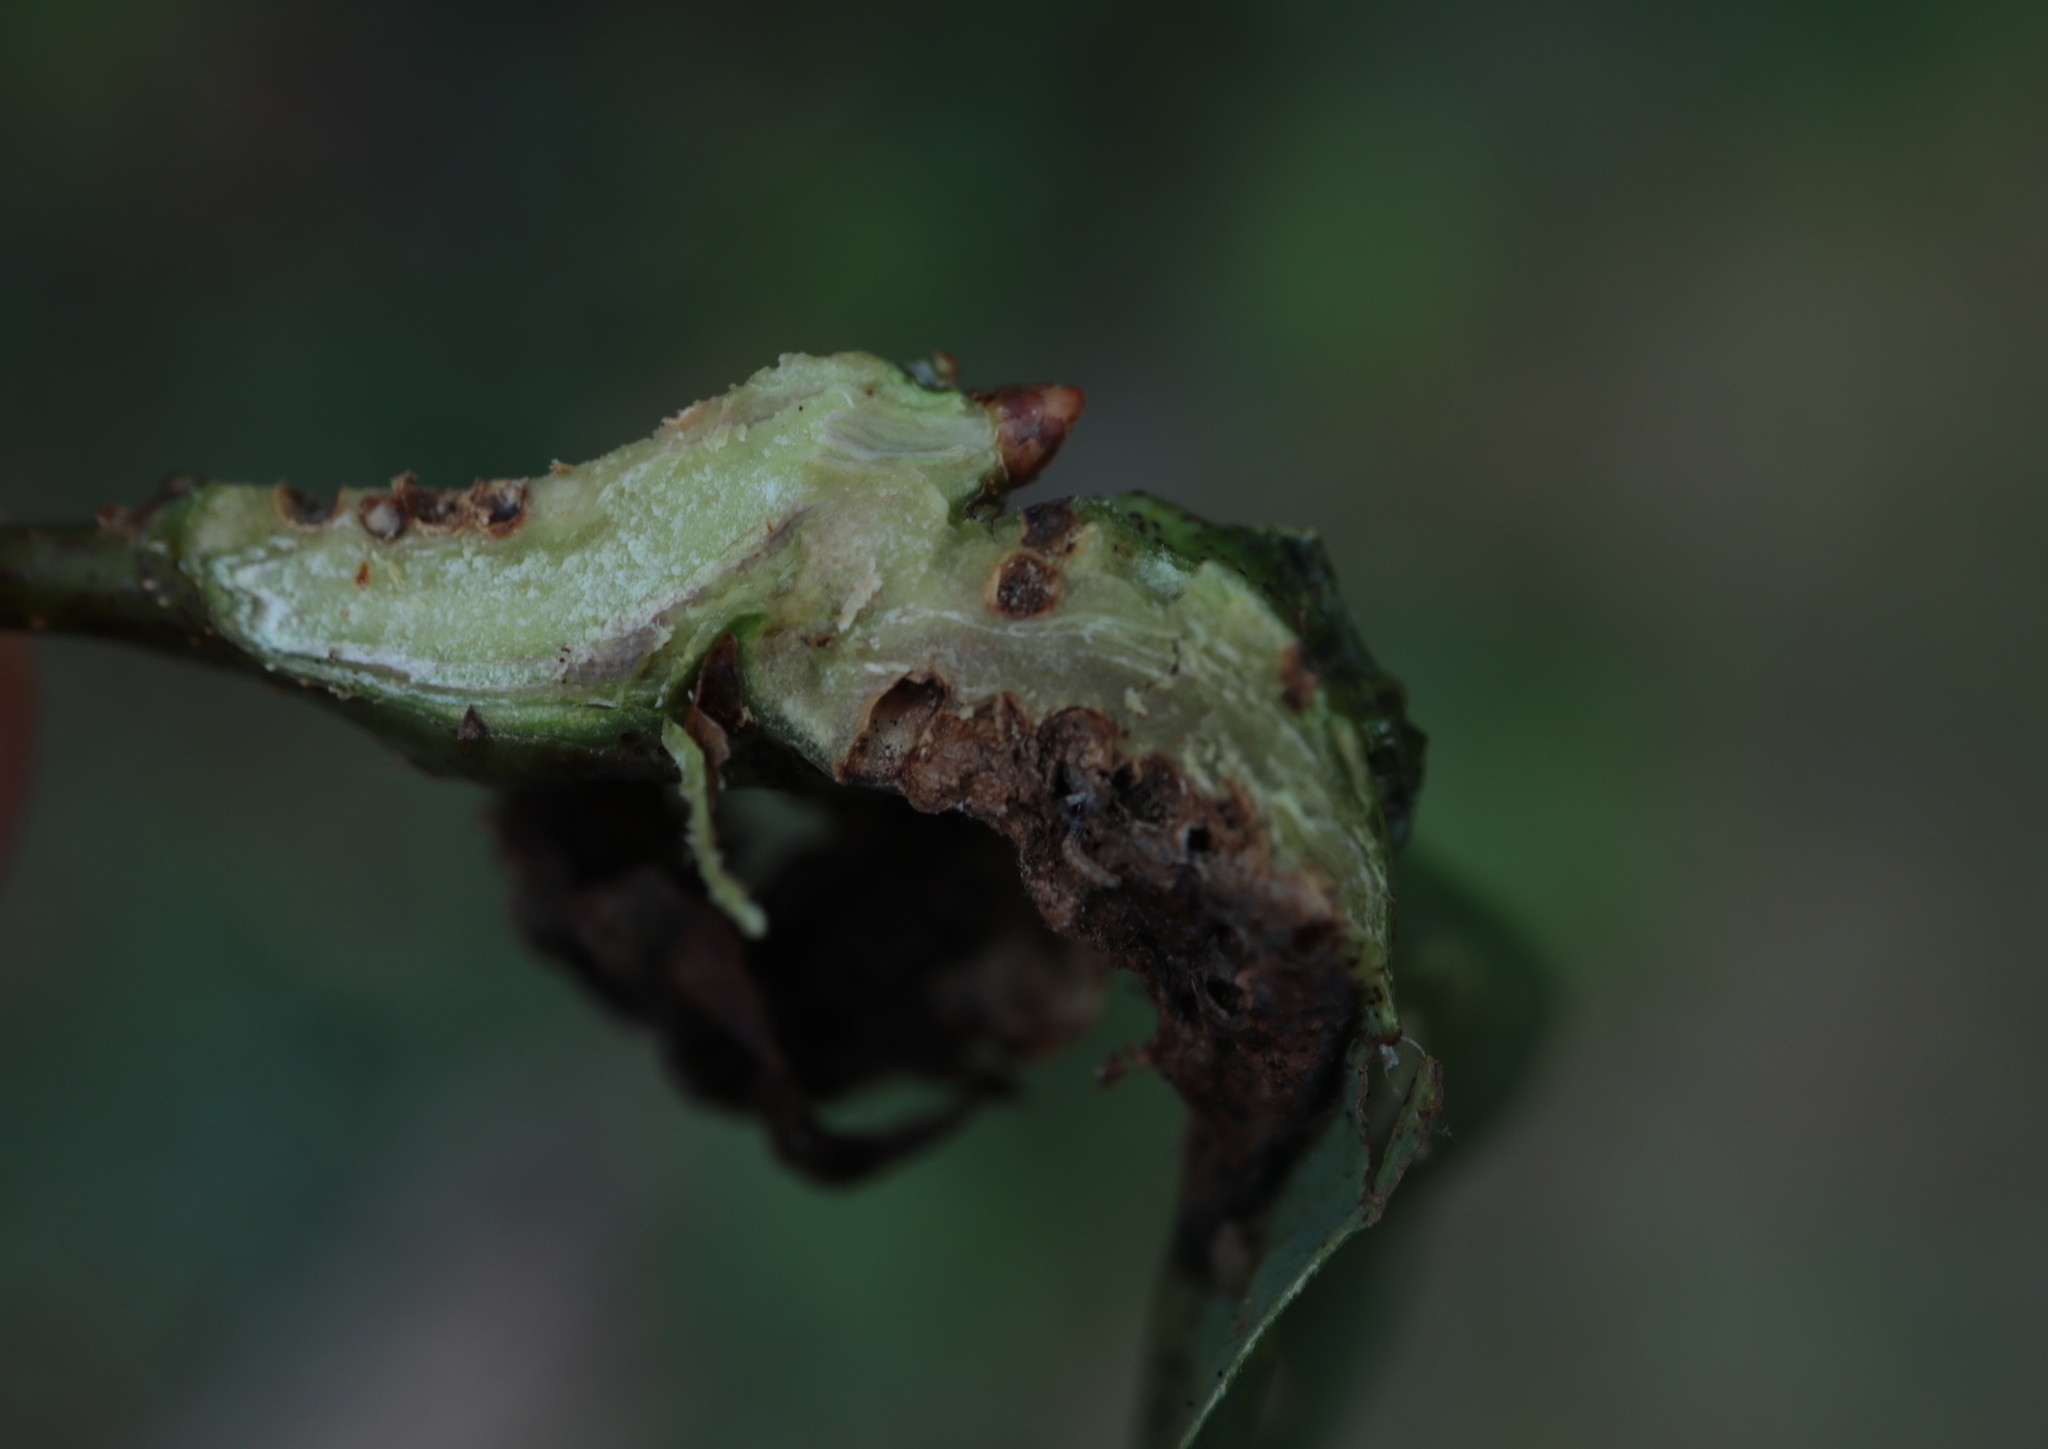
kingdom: Animalia
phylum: Arthropoda
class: Insecta
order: Hymenoptera
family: Cynipidae
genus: Neuroterus
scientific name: Neuroterus quercusbaccarum
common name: Common spangle gall
